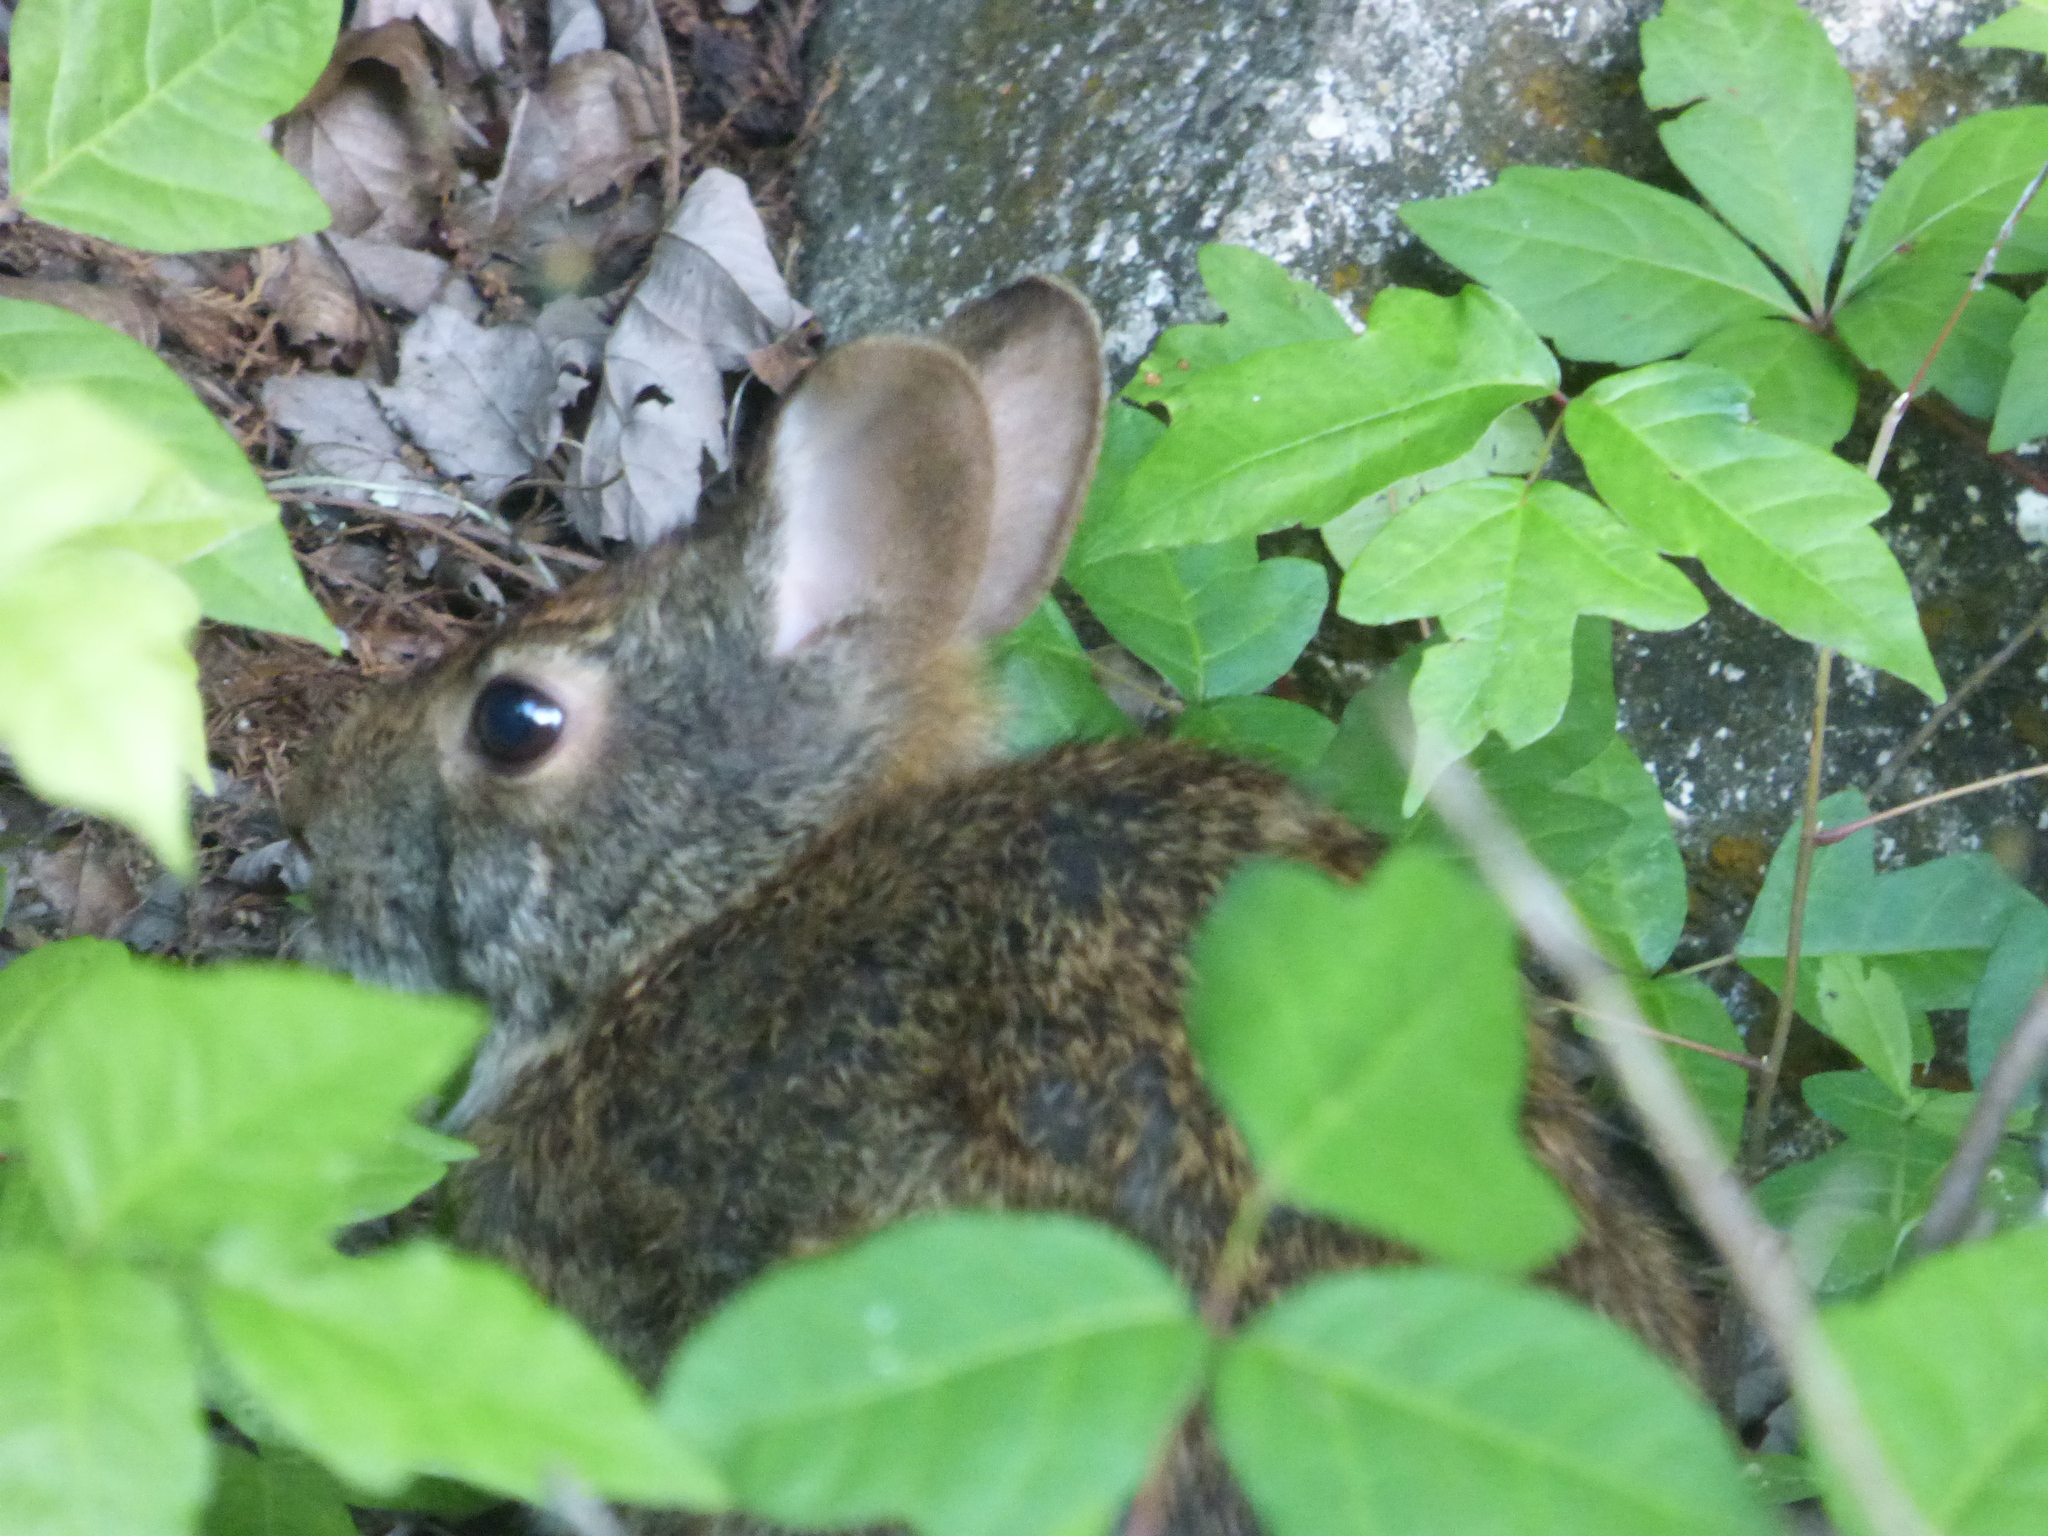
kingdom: Animalia
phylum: Chordata
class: Mammalia
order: Lagomorpha
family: Leporidae
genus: Sylvilagus
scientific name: Sylvilagus palustris
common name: Marsh rabbit
